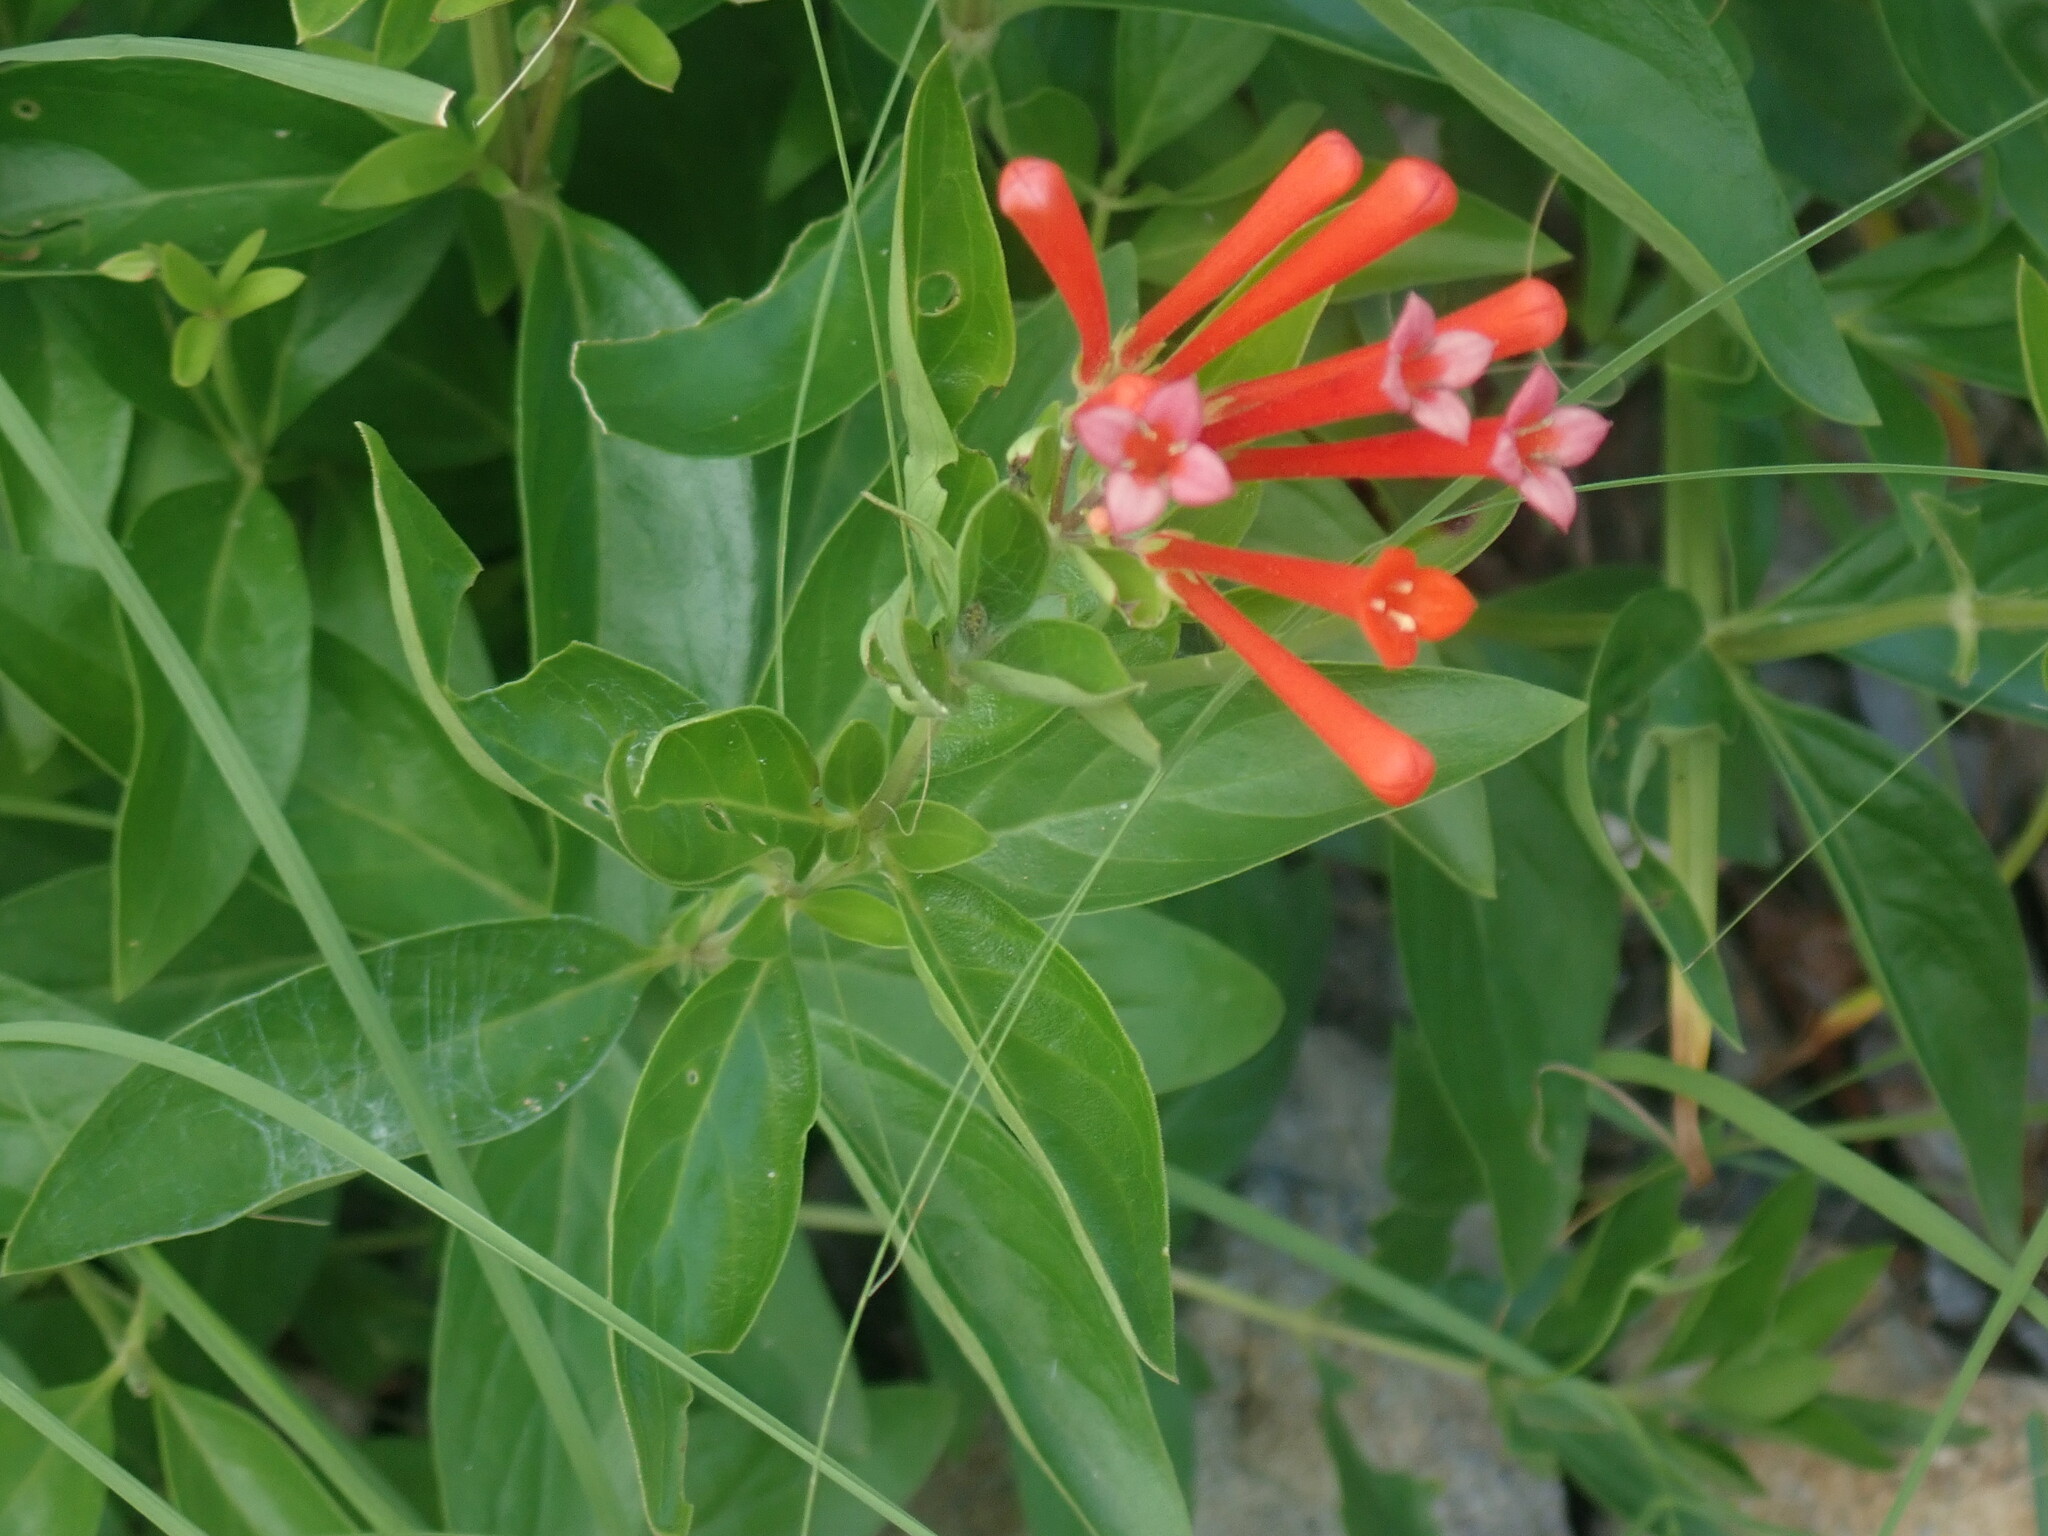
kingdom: Plantae
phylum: Tracheophyta
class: Magnoliopsida
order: Gentianales
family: Rubiaceae
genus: Bouvardia
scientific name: Bouvardia ternifolia
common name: Scarlet bouvardia
